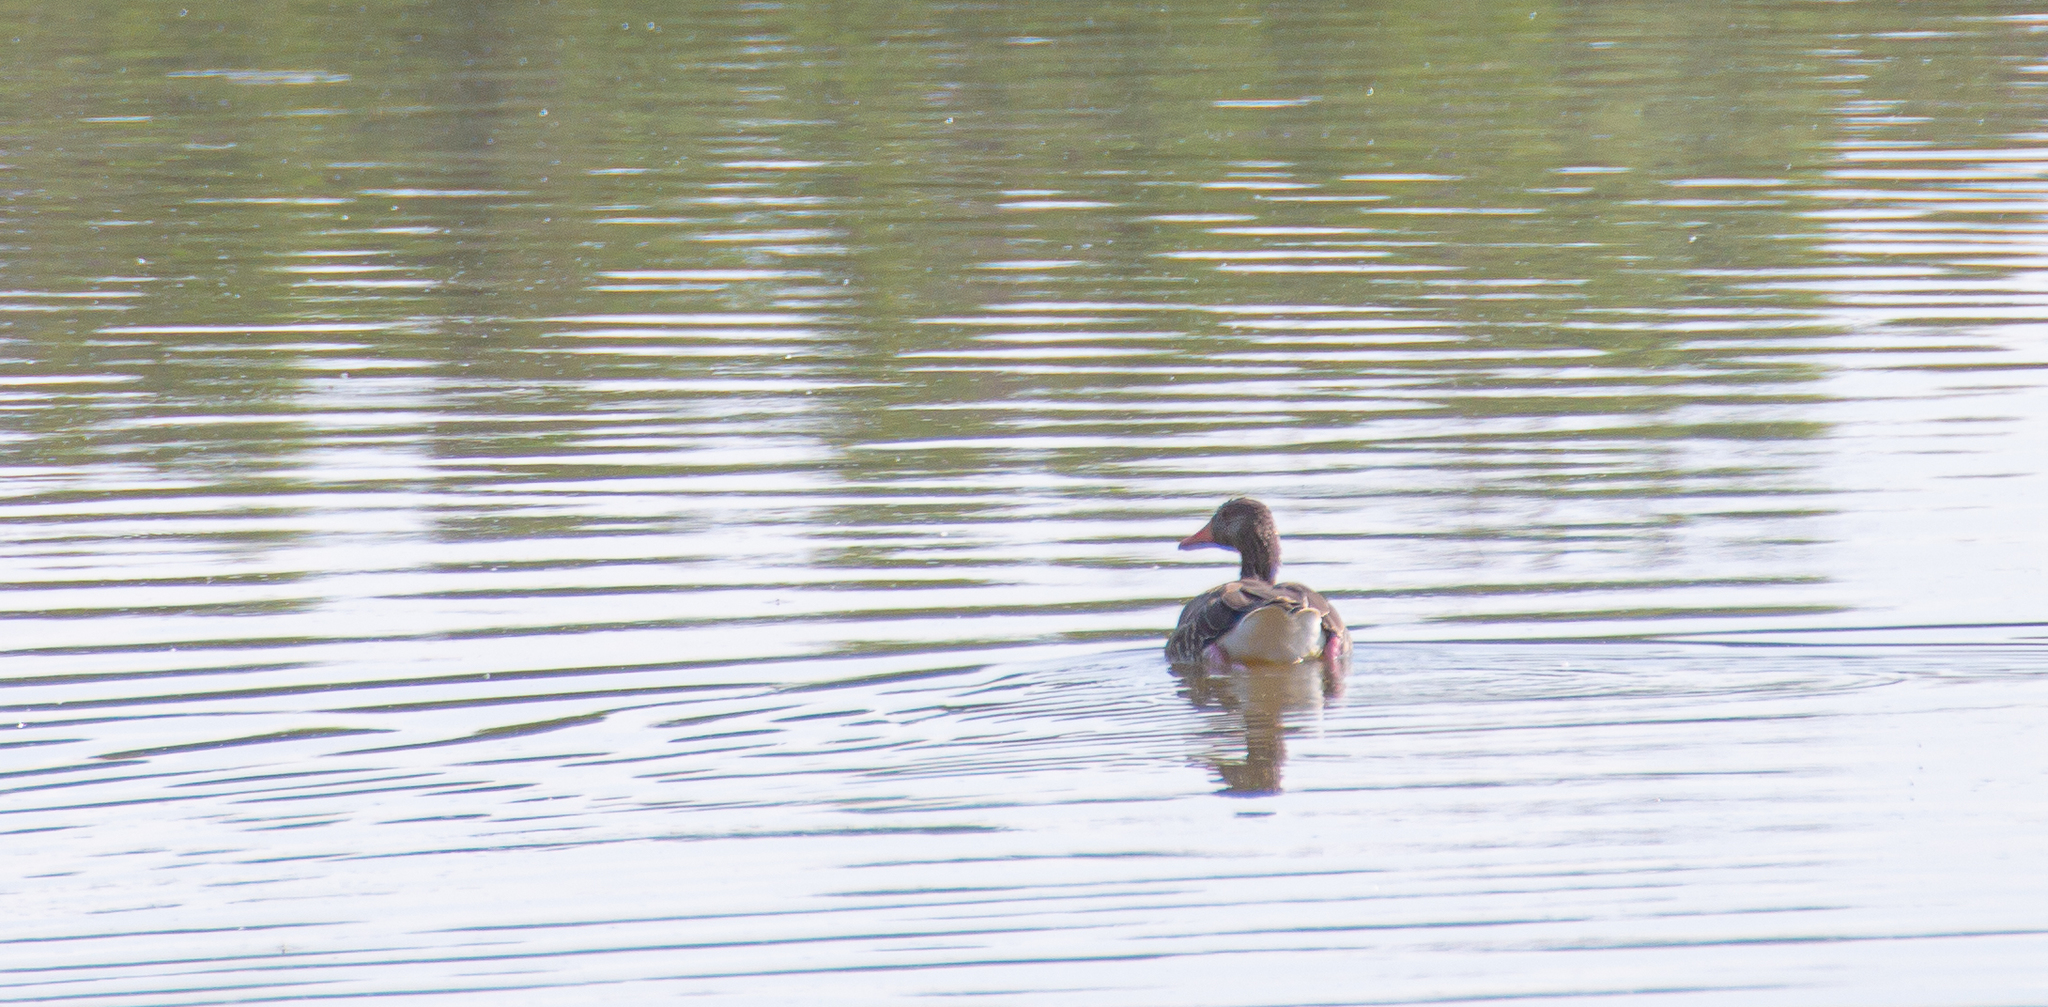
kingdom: Animalia
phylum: Chordata
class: Aves
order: Anseriformes
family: Anatidae
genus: Anser
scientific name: Anser anser
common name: Greylag goose
